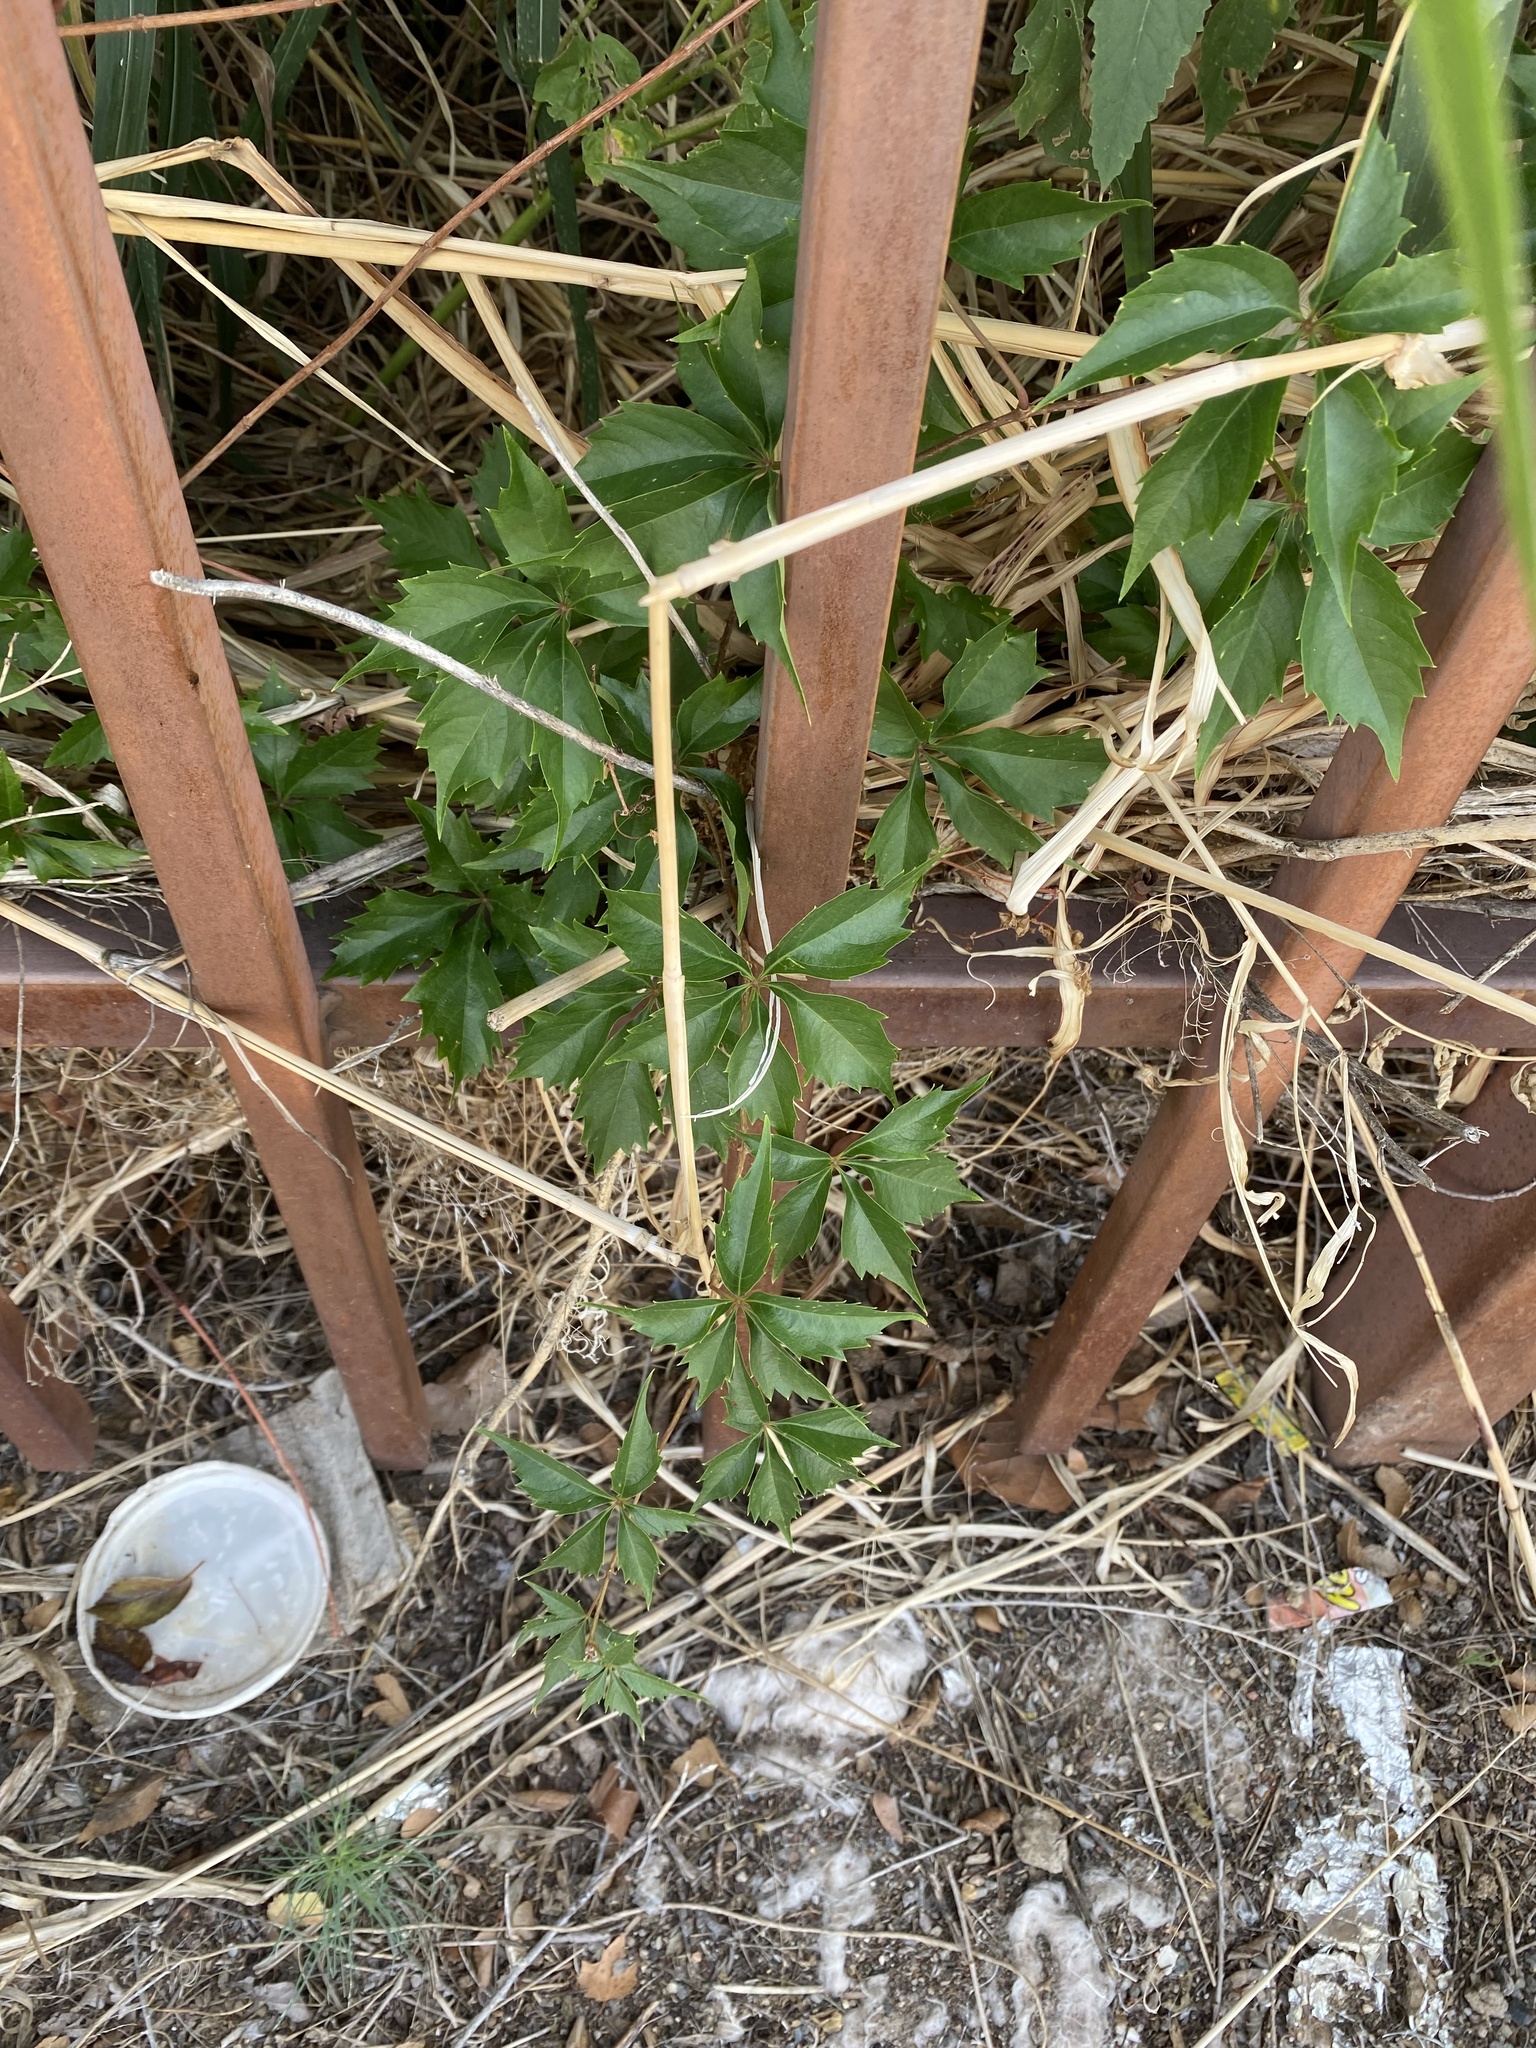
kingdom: Plantae
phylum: Tracheophyta
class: Magnoliopsida
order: Vitales
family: Vitaceae
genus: Parthenocissus
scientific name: Parthenocissus quinquefolia
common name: Virginia-creeper
